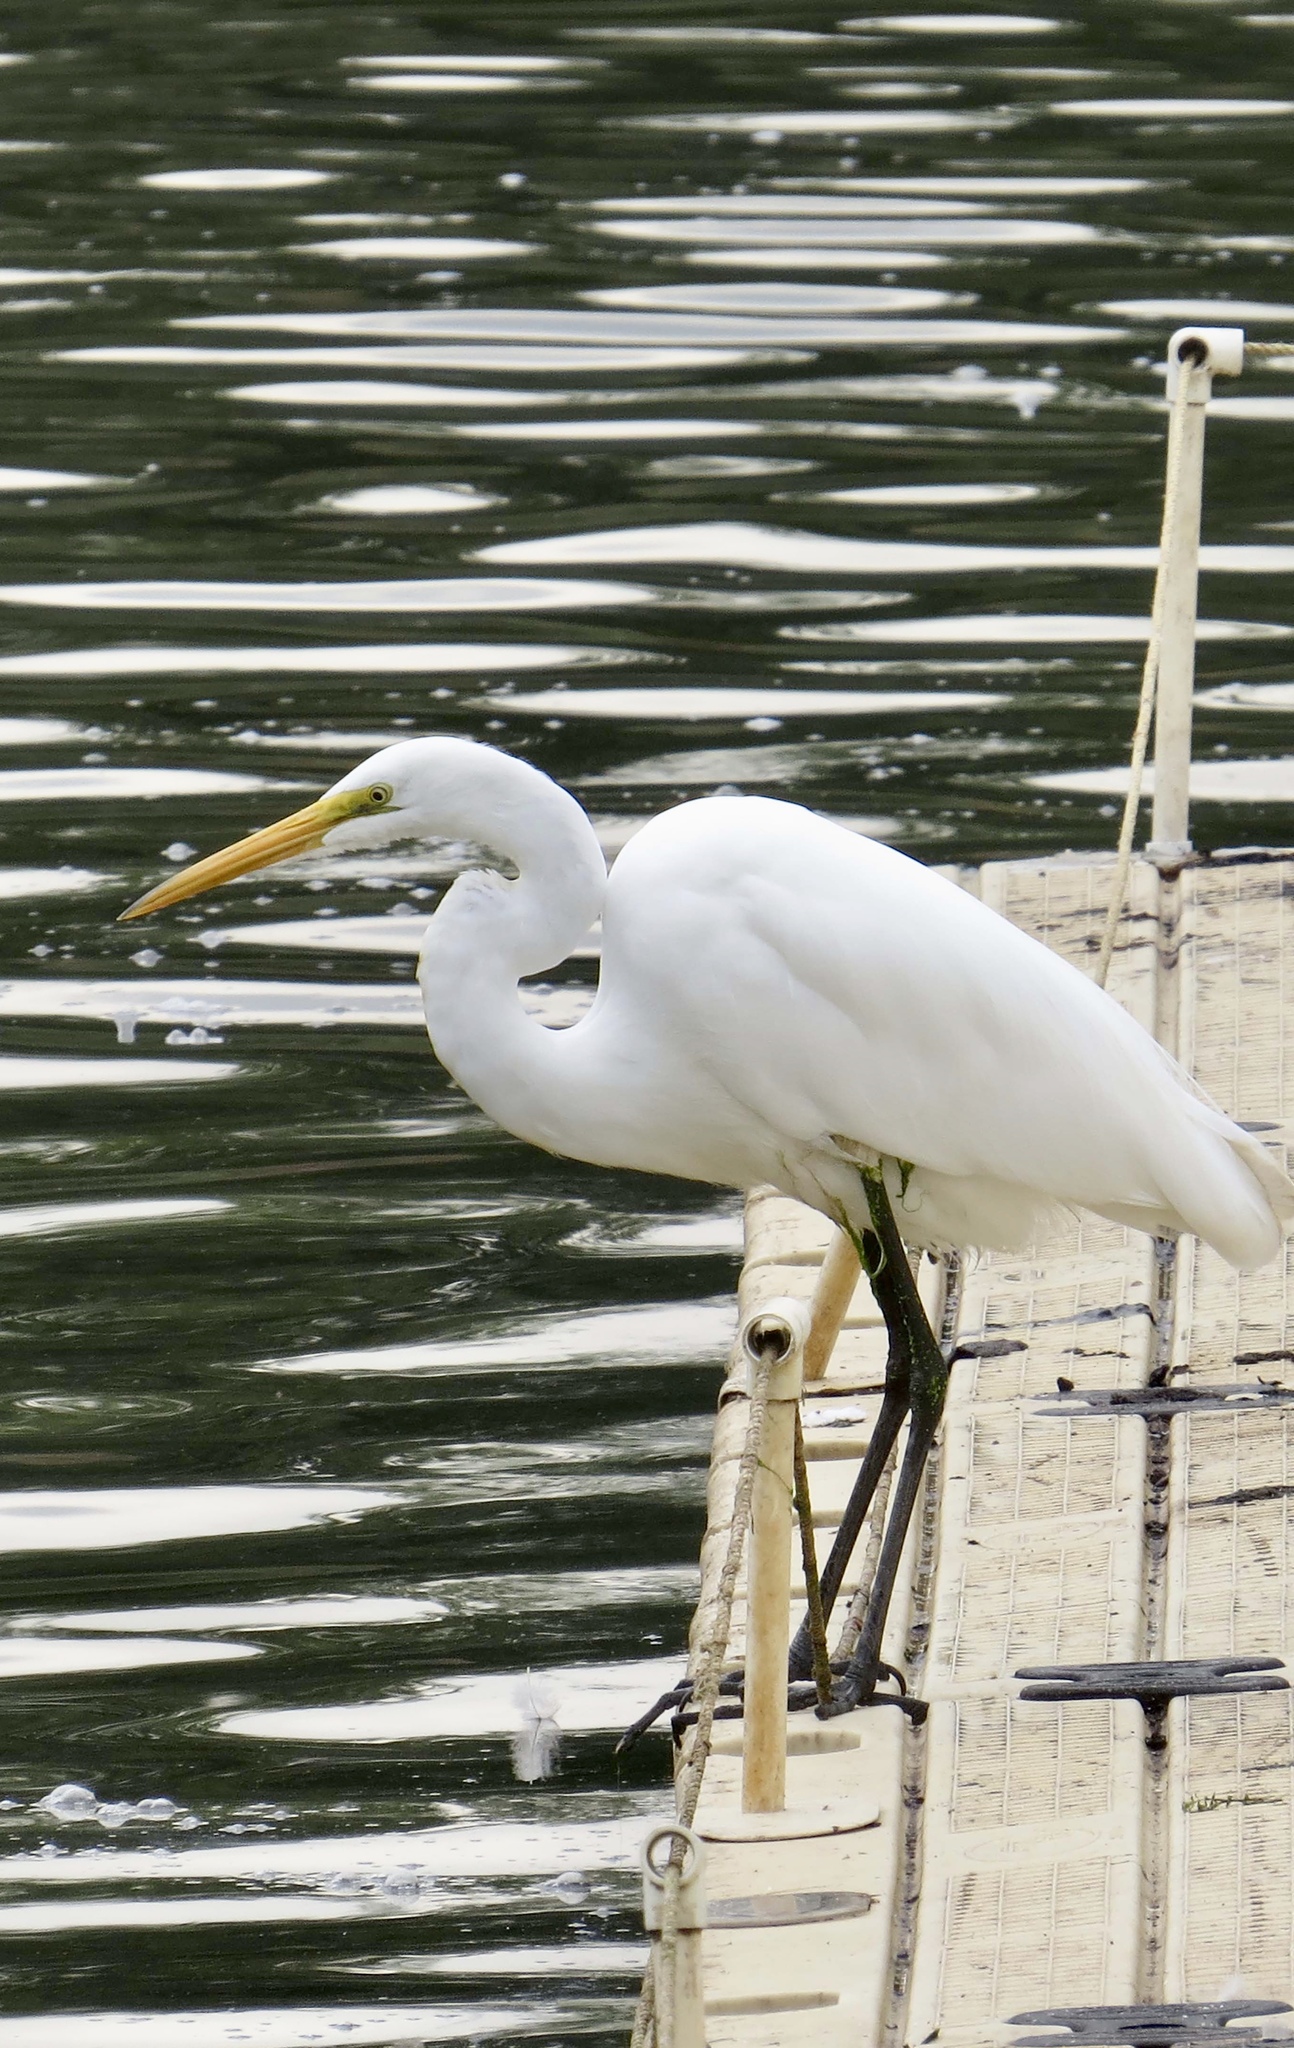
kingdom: Animalia
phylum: Chordata
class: Aves
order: Pelecaniformes
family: Ardeidae
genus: Ardea
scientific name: Ardea alba
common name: Great egret
